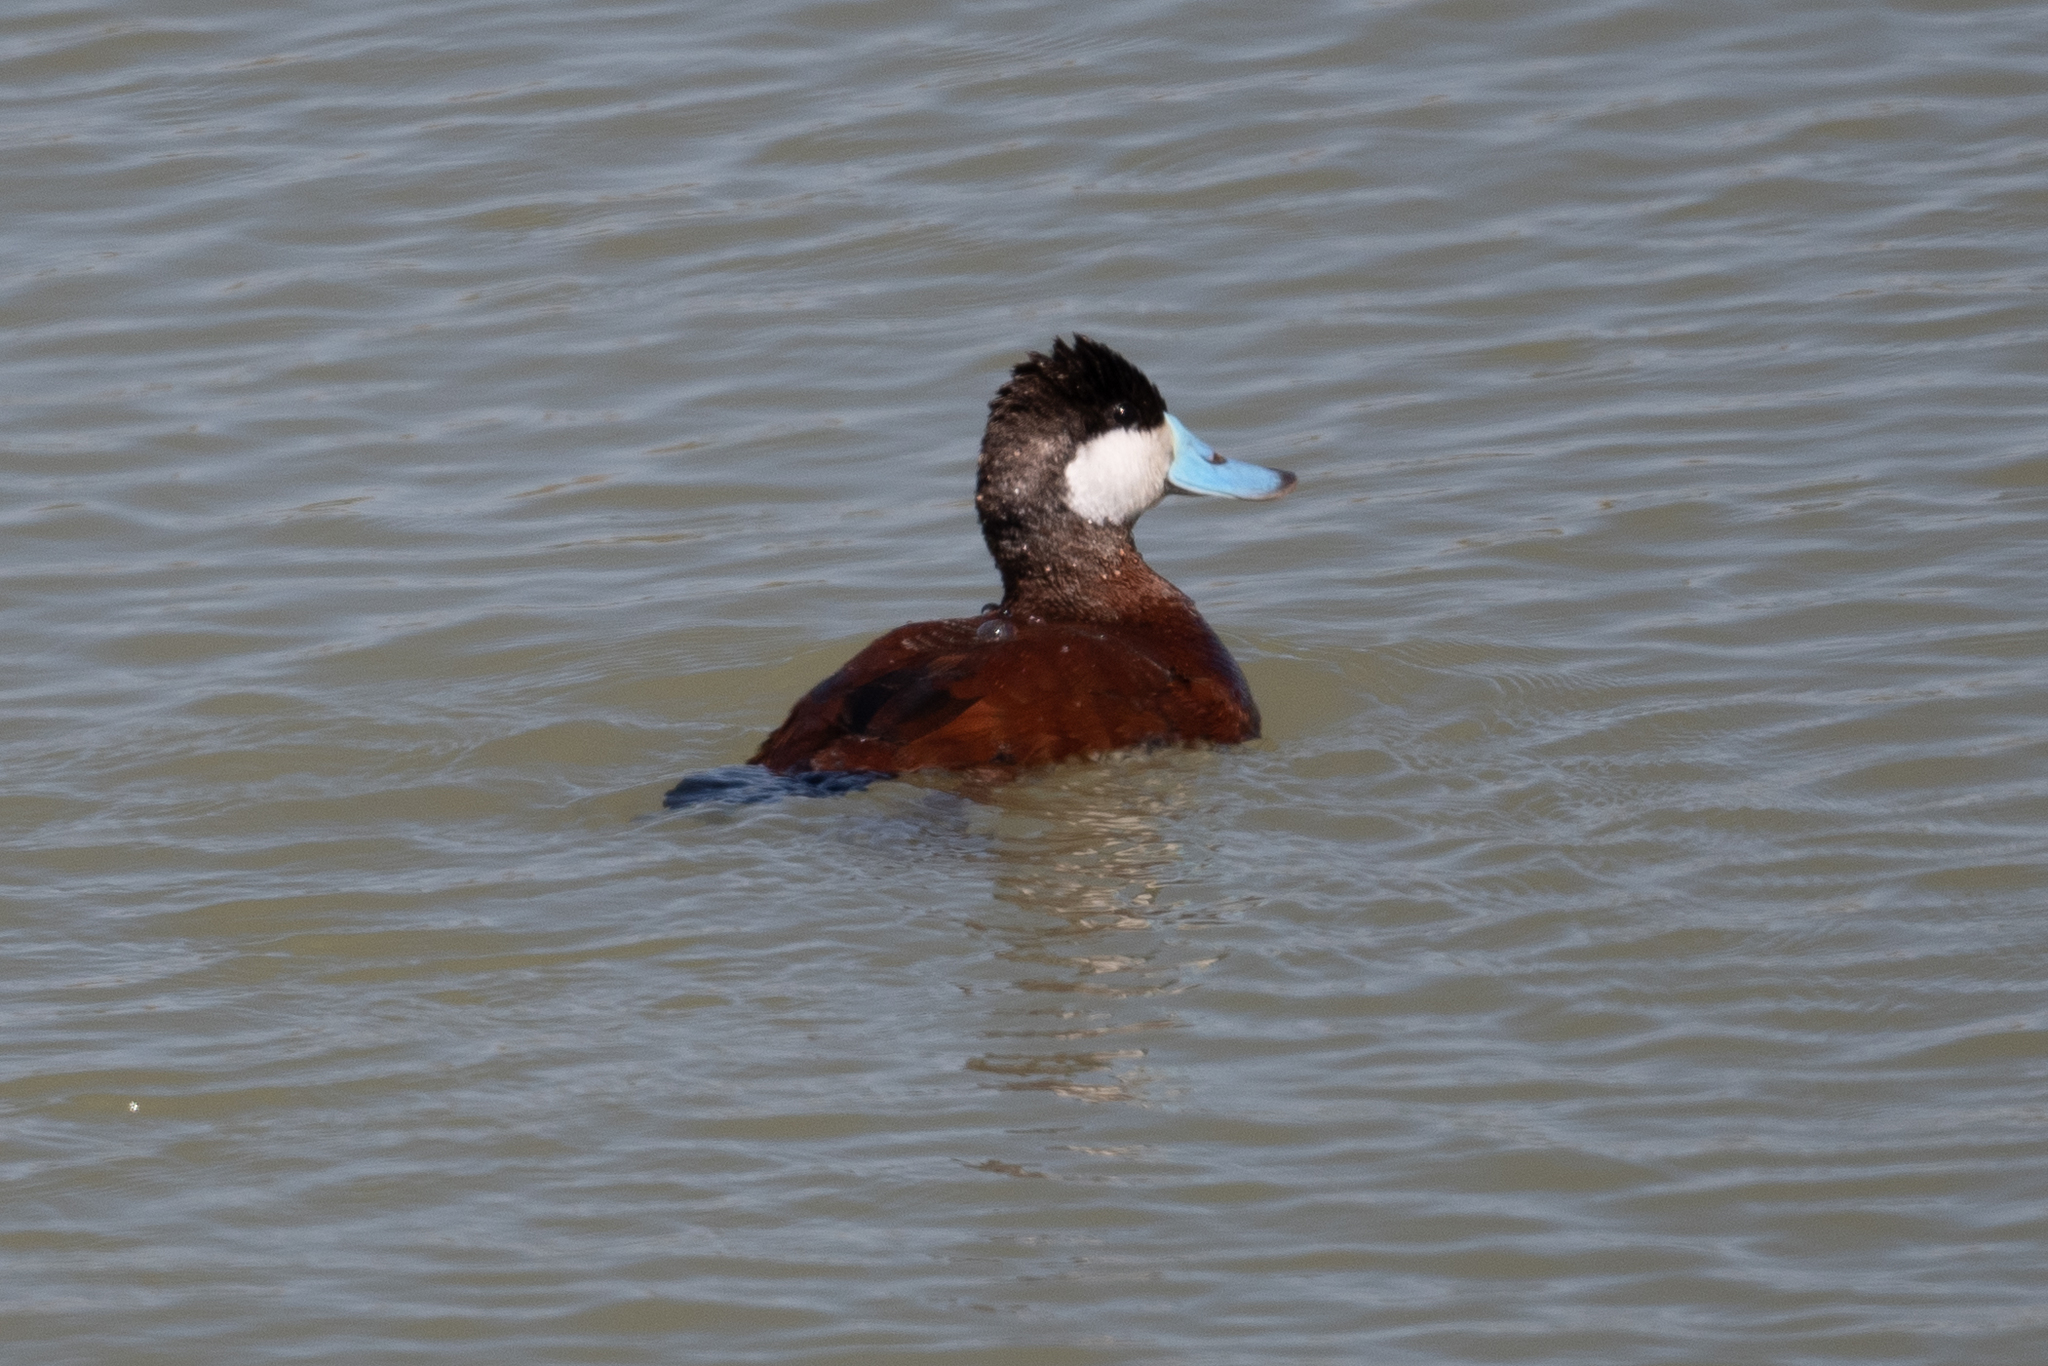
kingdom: Animalia
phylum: Chordata
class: Aves
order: Anseriformes
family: Anatidae
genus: Oxyura
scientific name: Oxyura jamaicensis
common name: Ruddy duck
